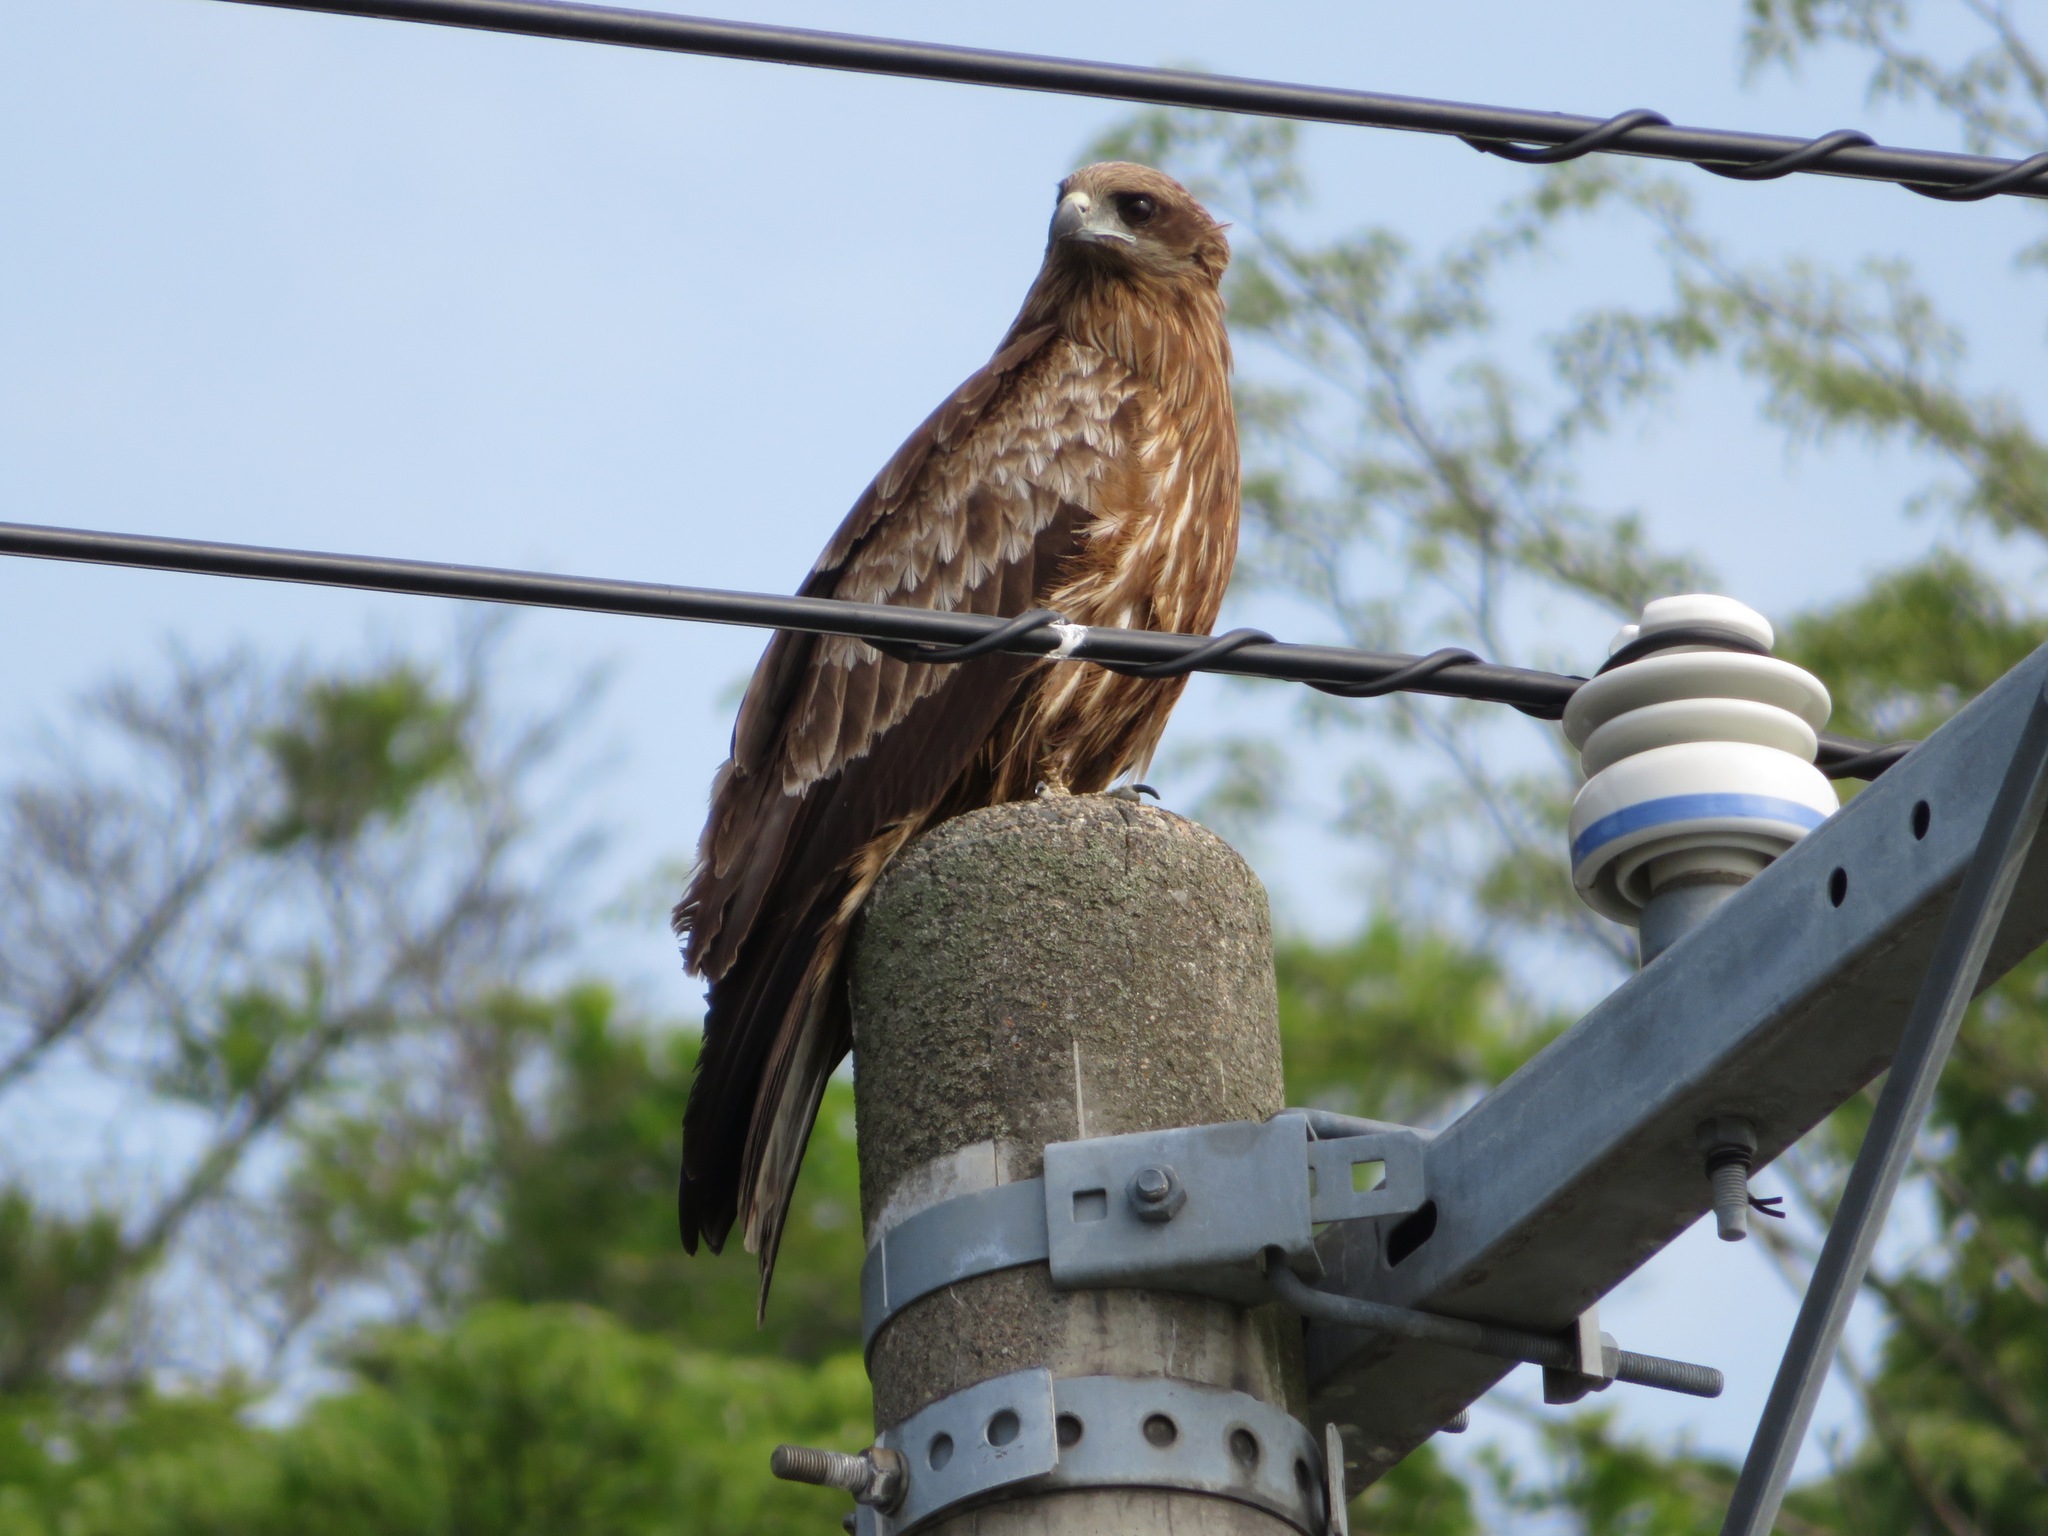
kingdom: Animalia
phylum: Chordata
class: Aves
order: Accipitriformes
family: Accipitridae
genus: Milvus
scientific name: Milvus migrans
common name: Black kite
